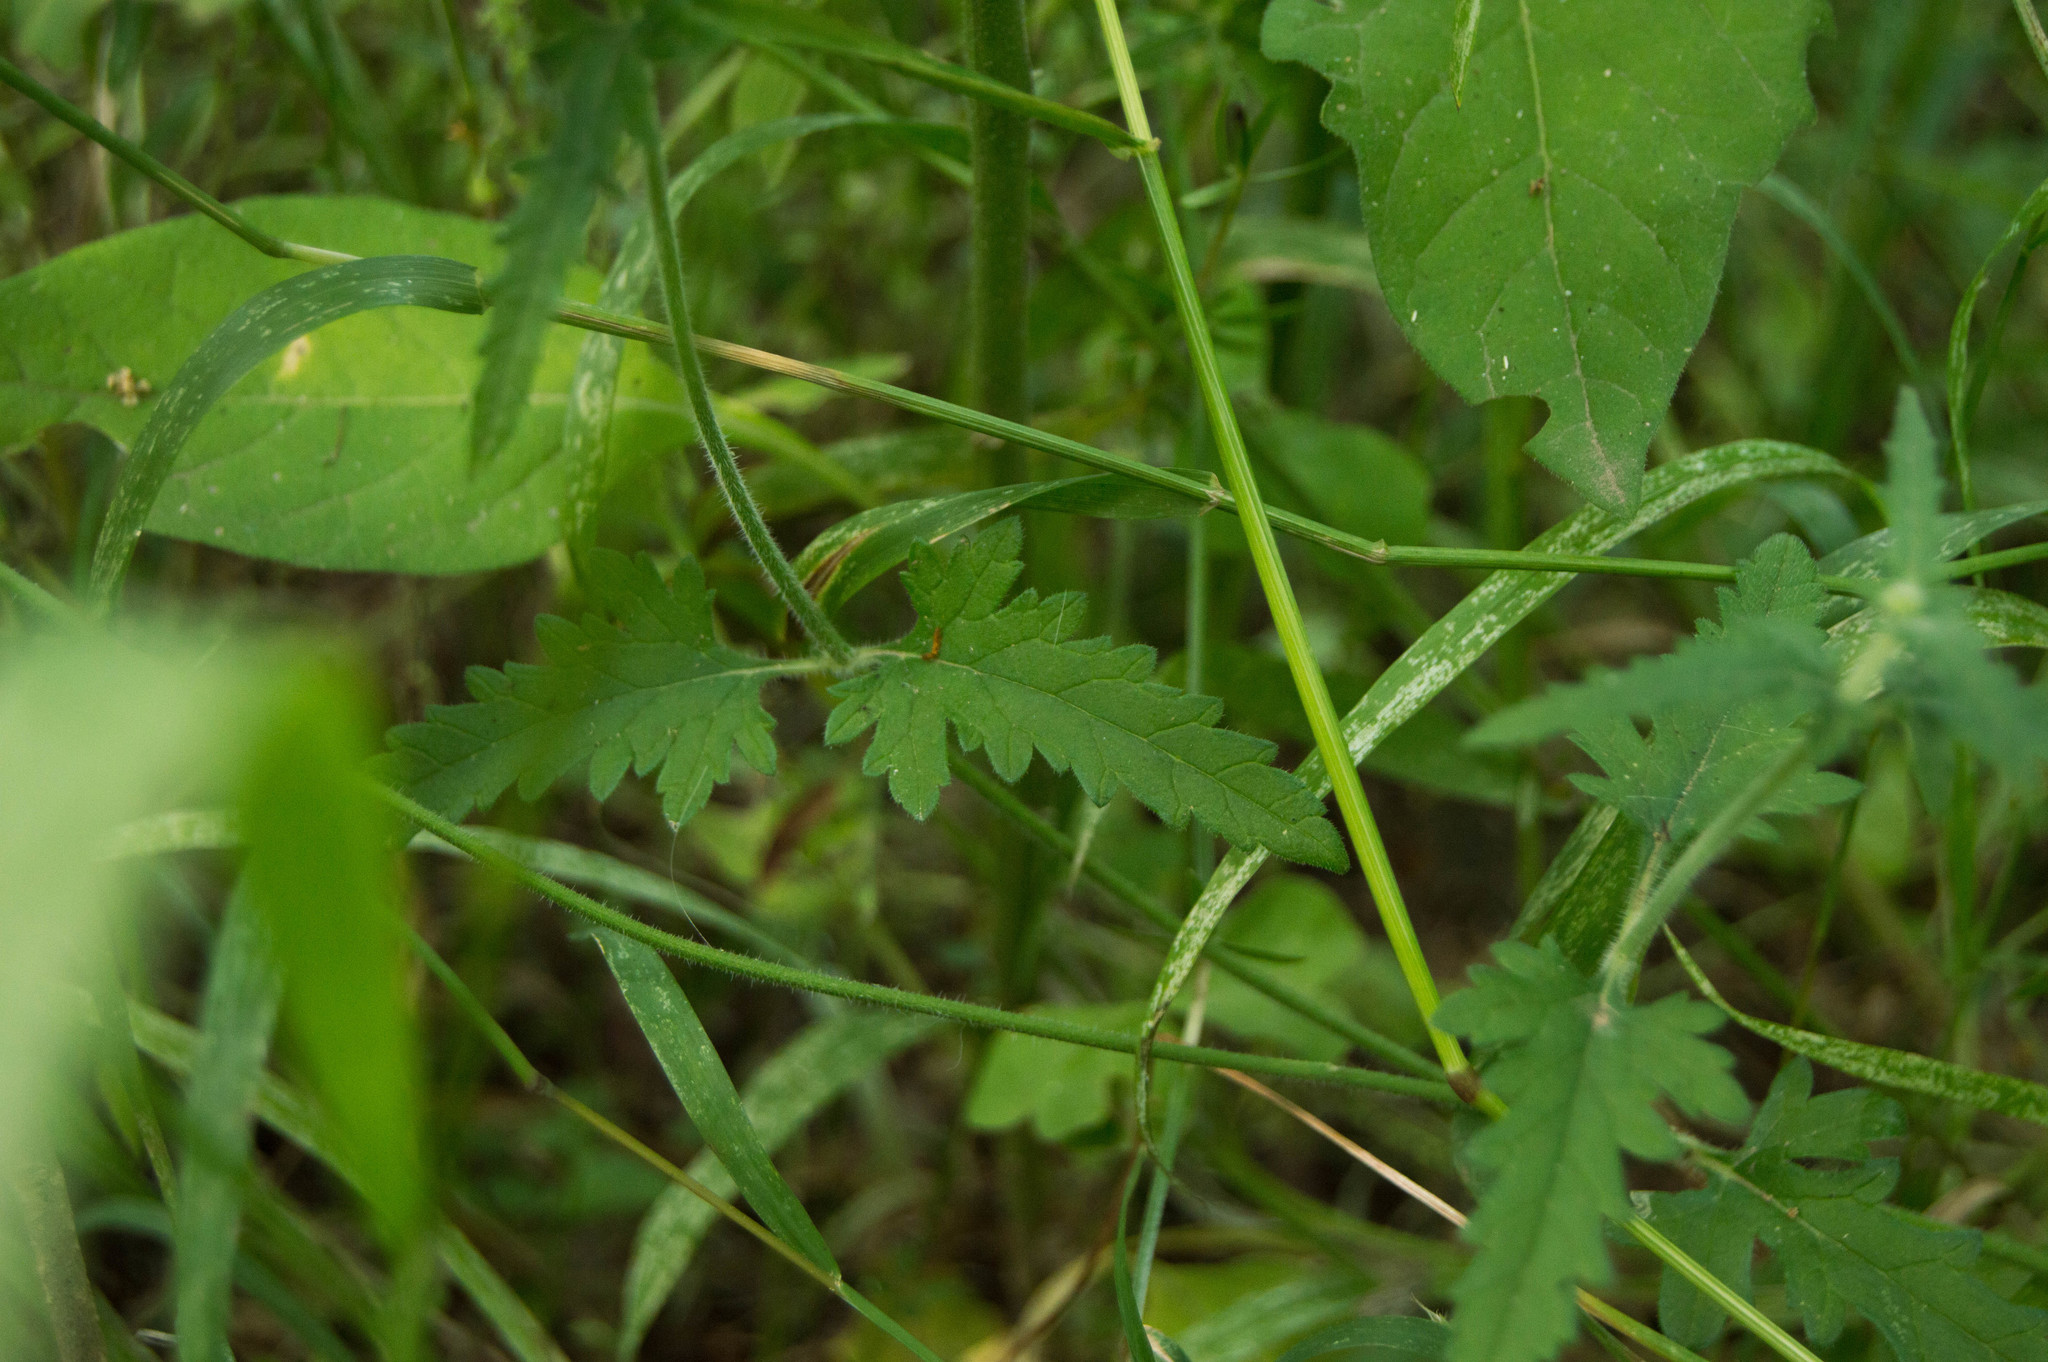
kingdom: Plantae
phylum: Tracheophyta
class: Magnoliopsida
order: Lamiales
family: Verbenaceae
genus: Verbena
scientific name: Verbena tweedieana
